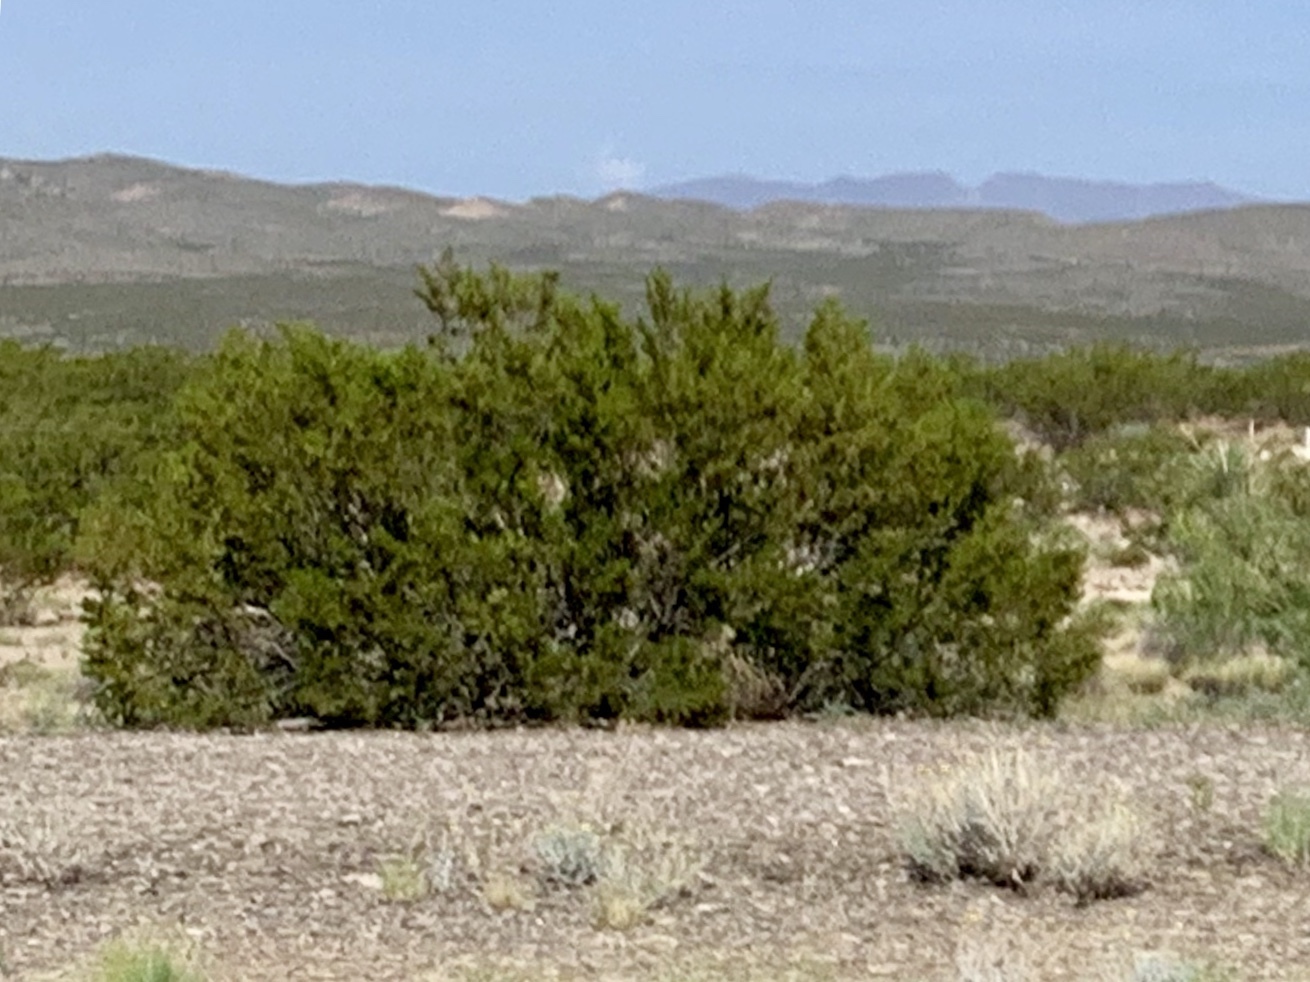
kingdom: Plantae
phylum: Tracheophyta
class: Magnoliopsida
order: Zygophyllales
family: Zygophyllaceae
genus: Larrea
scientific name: Larrea tridentata
